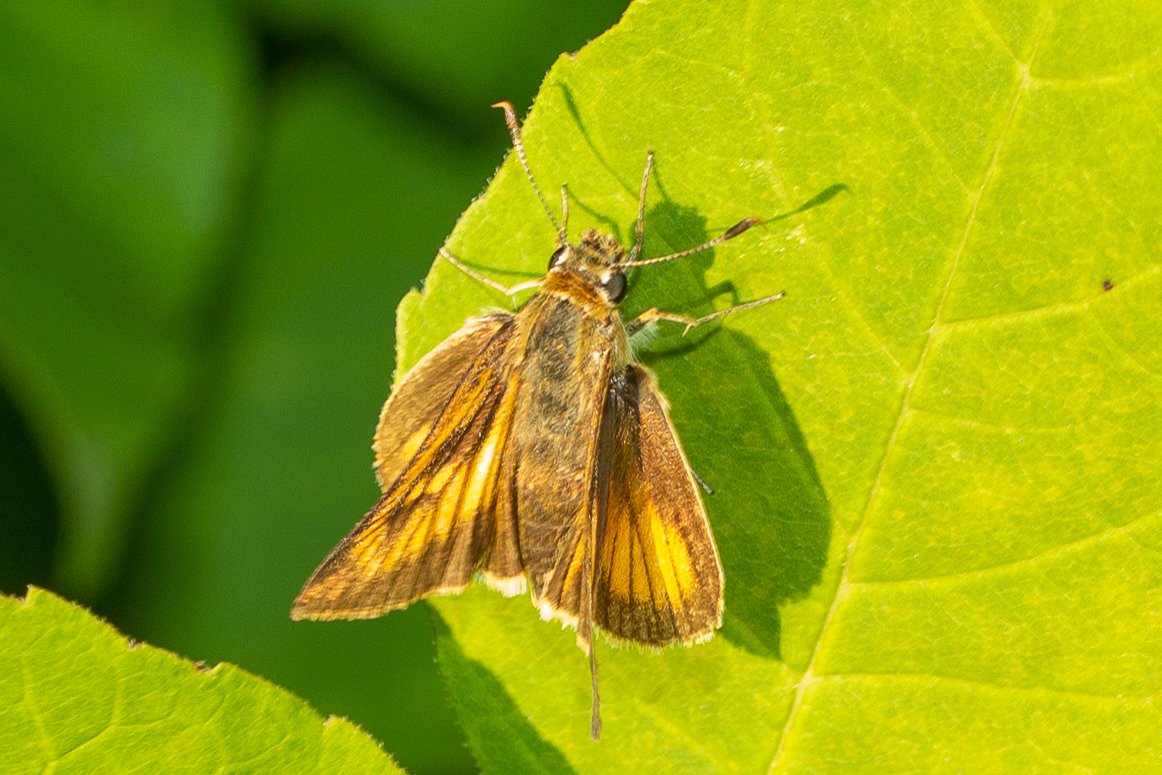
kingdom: Animalia
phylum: Arthropoda
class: Insecta
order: Lepidoptera
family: Hesperiidae
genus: Atrytone
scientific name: Atrytone delaware
